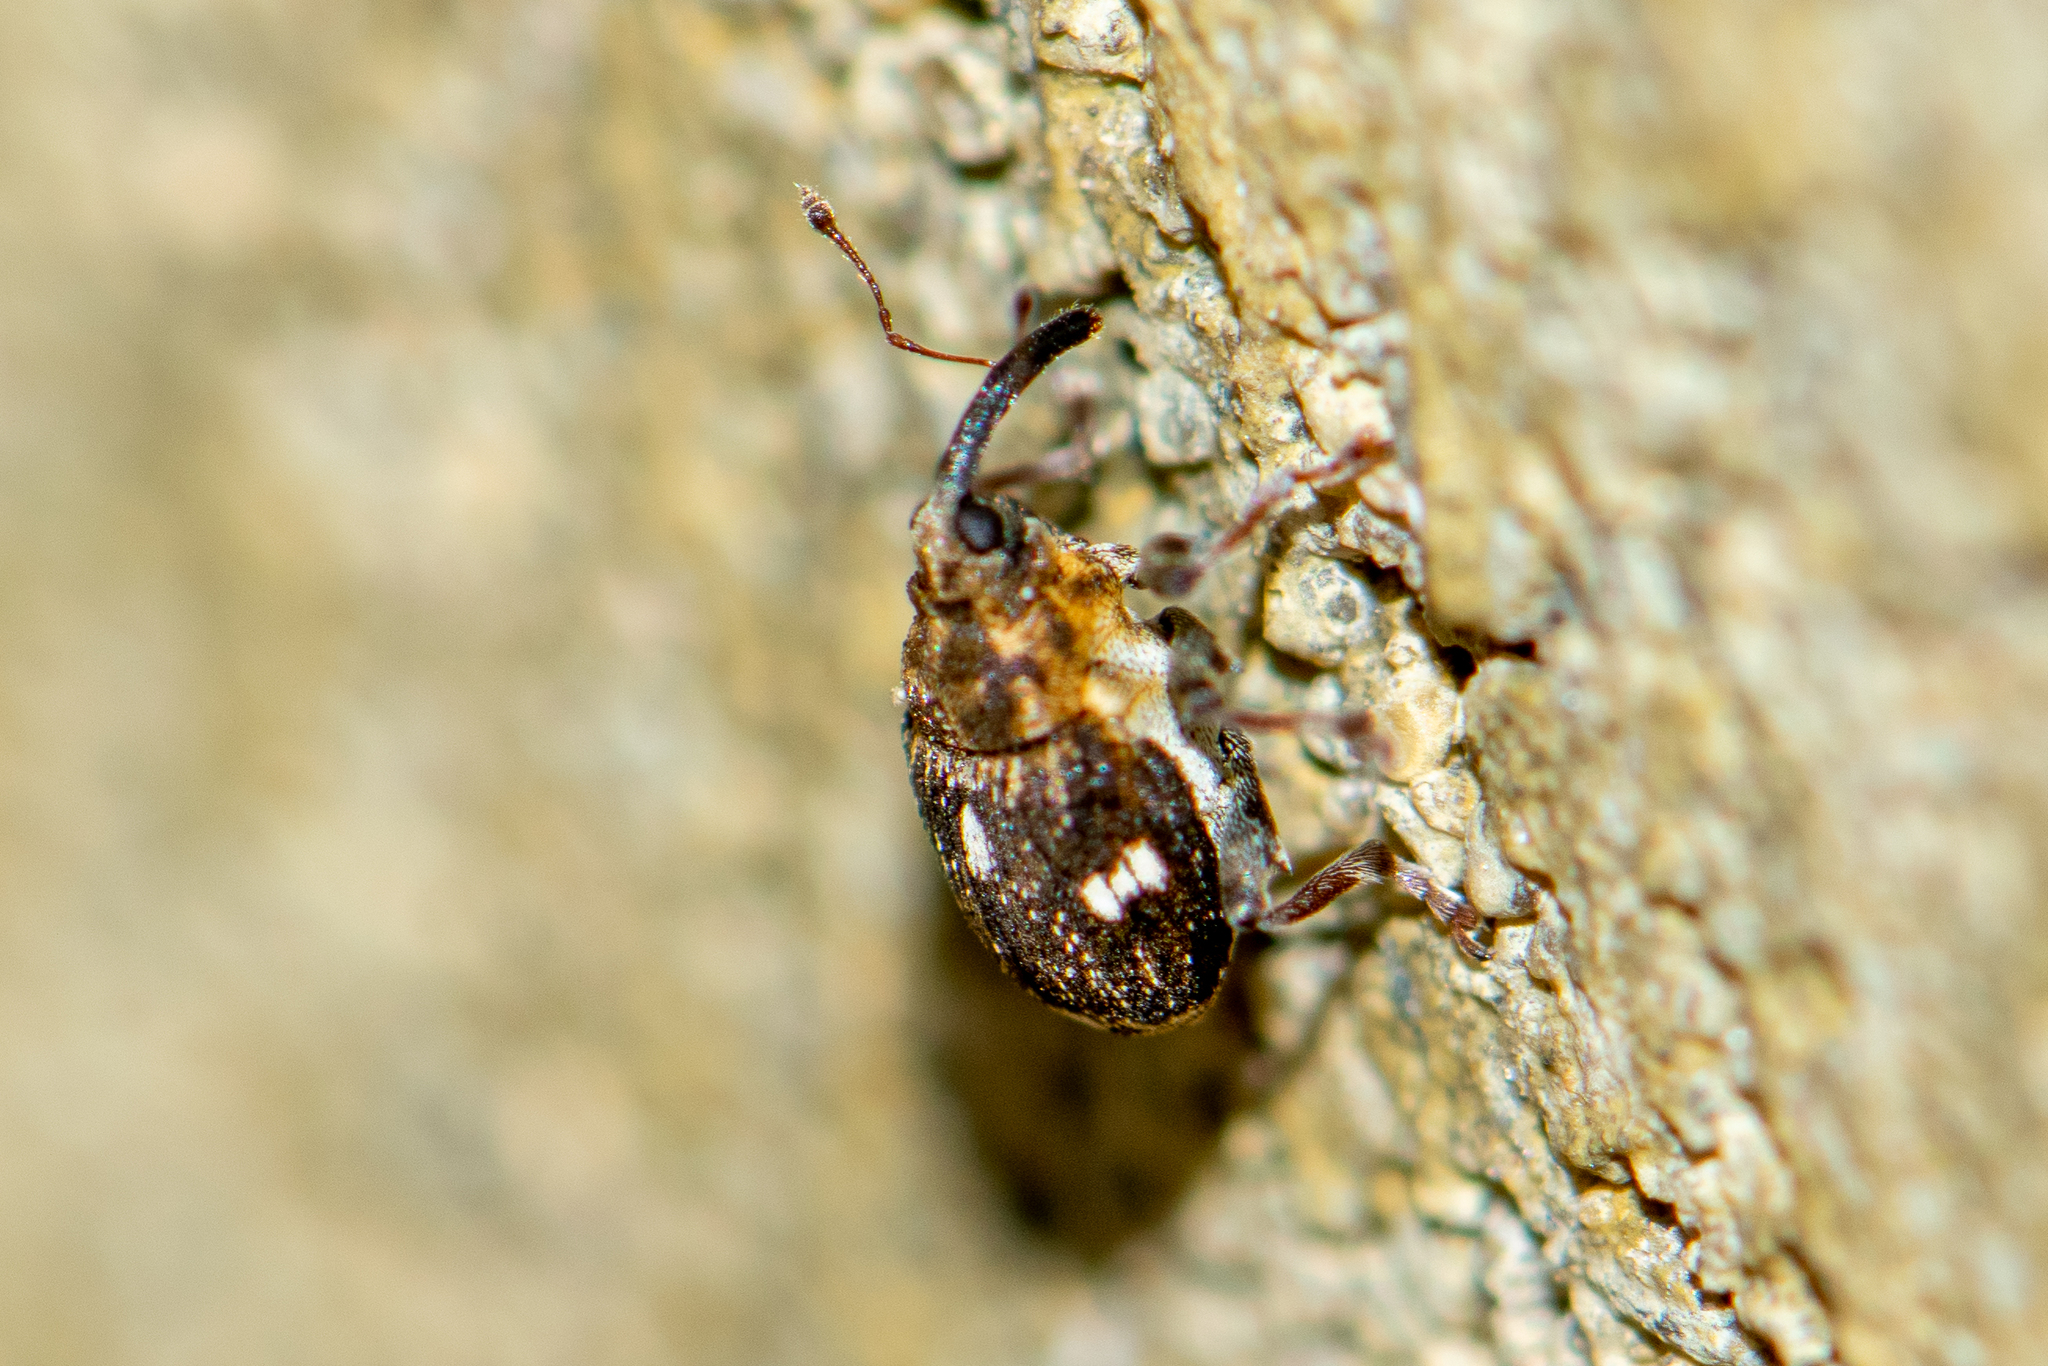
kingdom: Animalia
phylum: Arthropoda
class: Insecta
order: Coleoptera
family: Curculionidae
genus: Nedyus
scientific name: Nedyus quadrimaculatus
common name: Small nettle weevil
